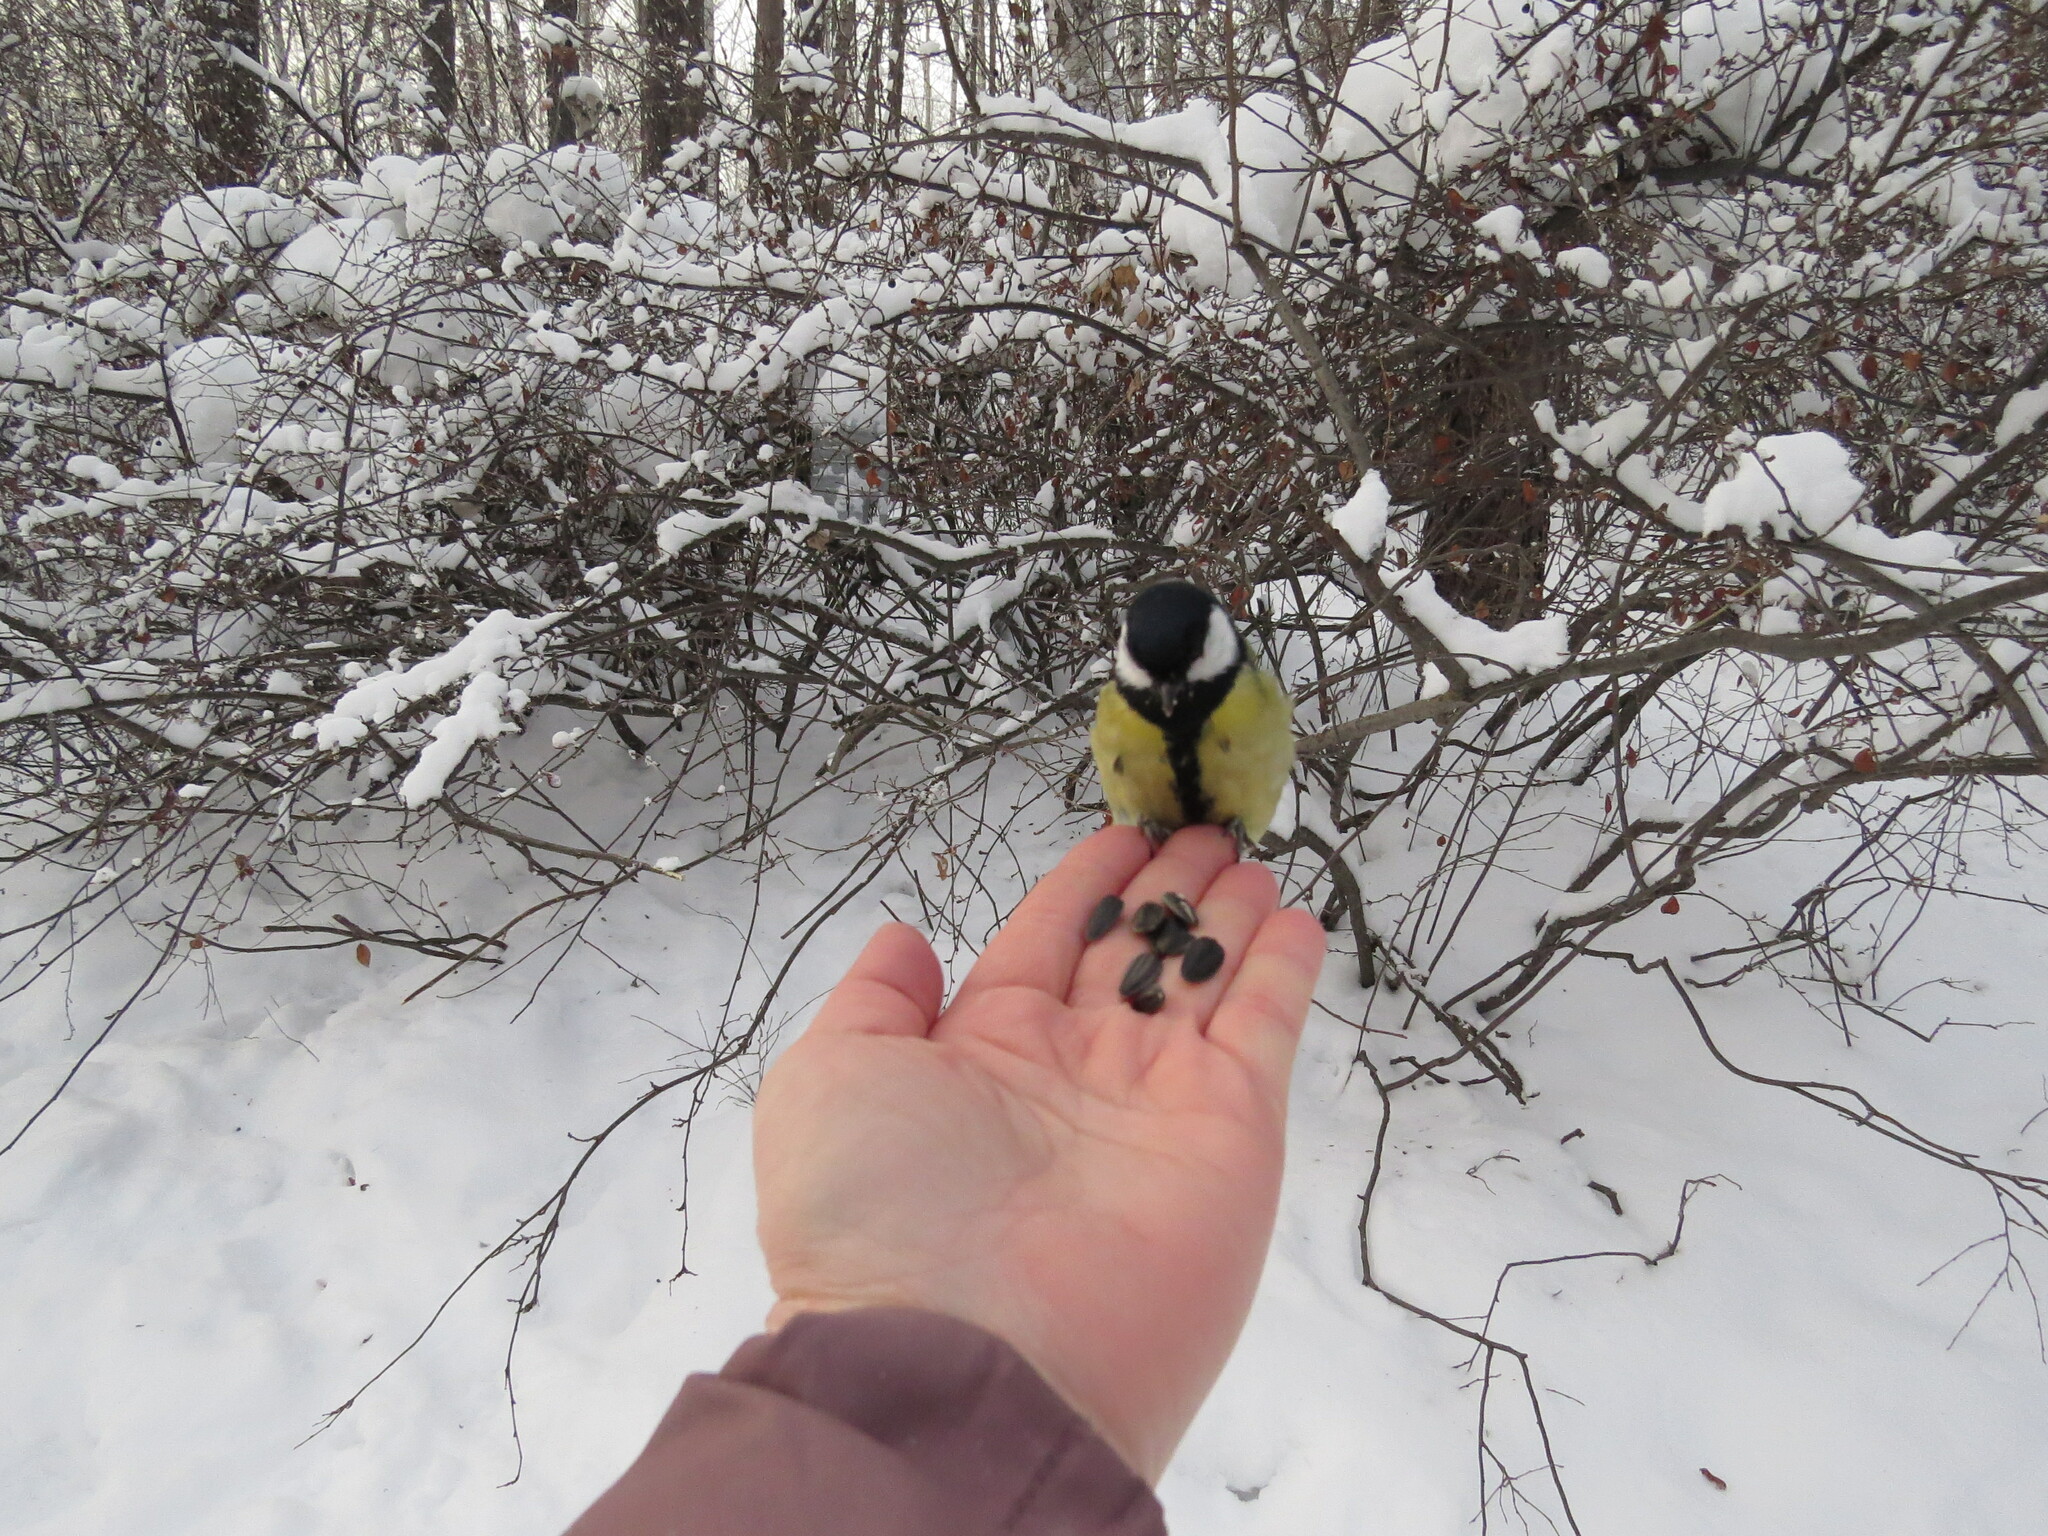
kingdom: Animalia
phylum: Chordata
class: Aves
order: Passeriformes
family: Paridae
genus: Parus
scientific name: Parus major
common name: Great tit
